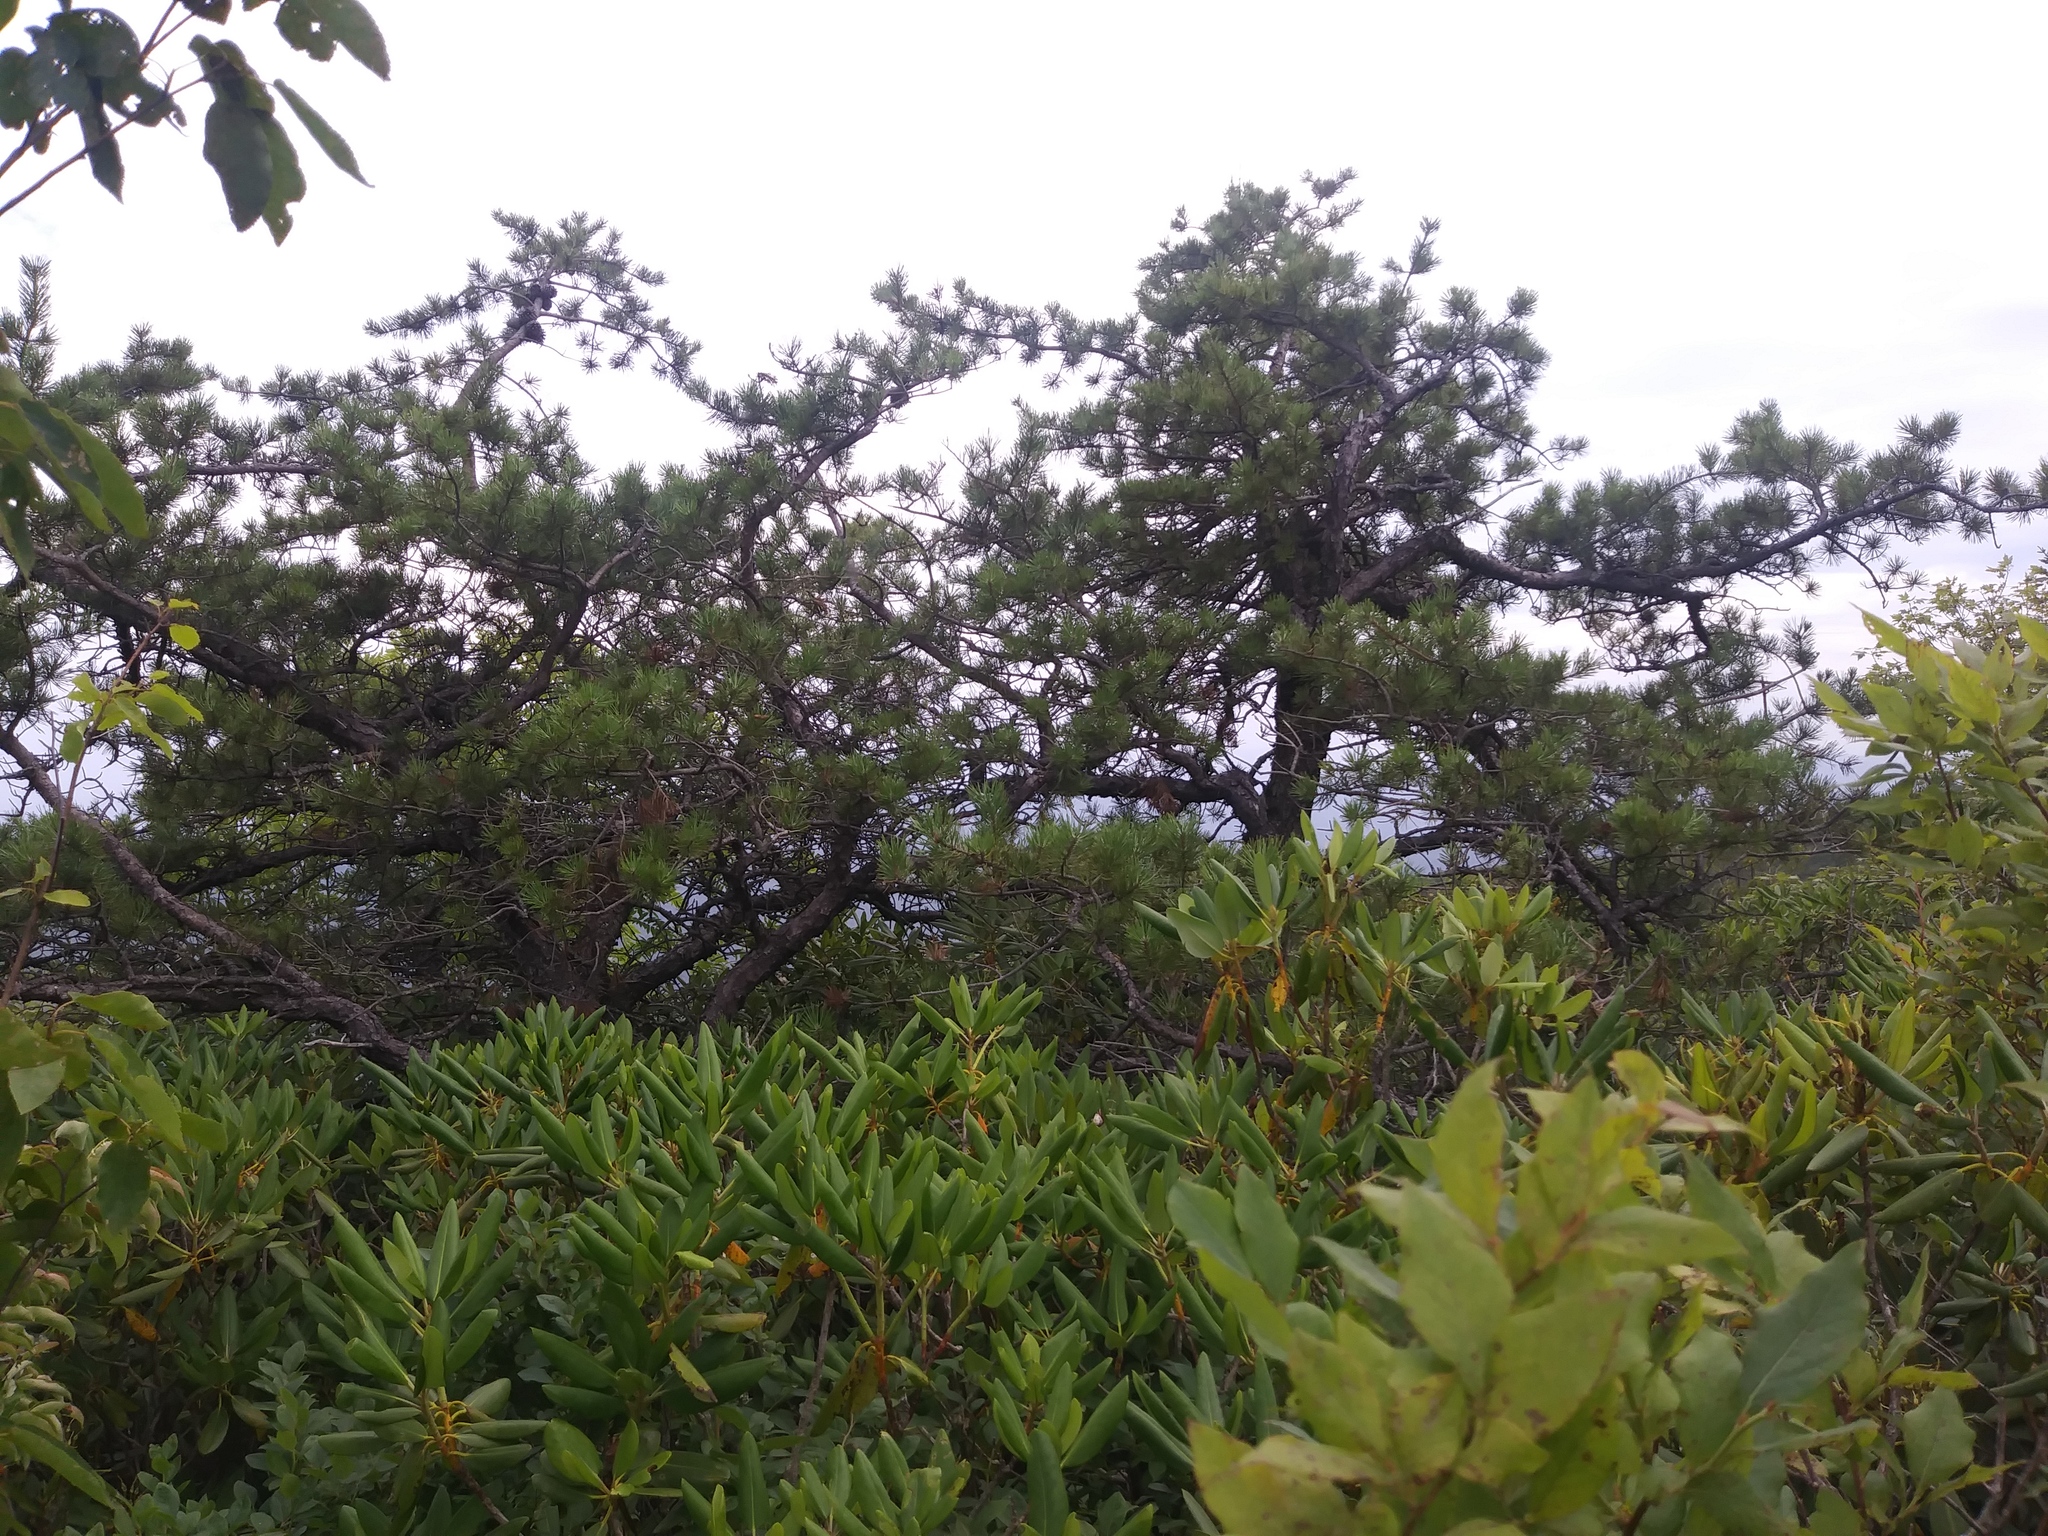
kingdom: Plantae
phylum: Tracheophyta
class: Pinopsida
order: Pinales
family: Pinaceae
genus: Pinus
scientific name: Pinus pungens
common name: Hickory pine
